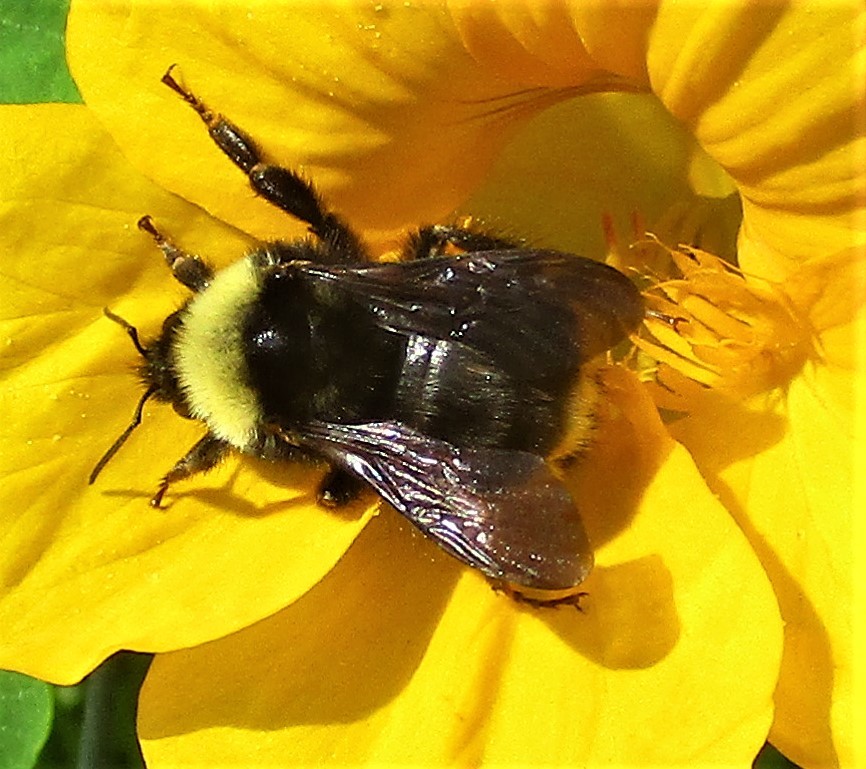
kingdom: Animalia
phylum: Arthropoda
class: Insecta
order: Hymenoptera
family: Apidae
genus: Bombus
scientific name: Bombus californicus
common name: California bumble bee
